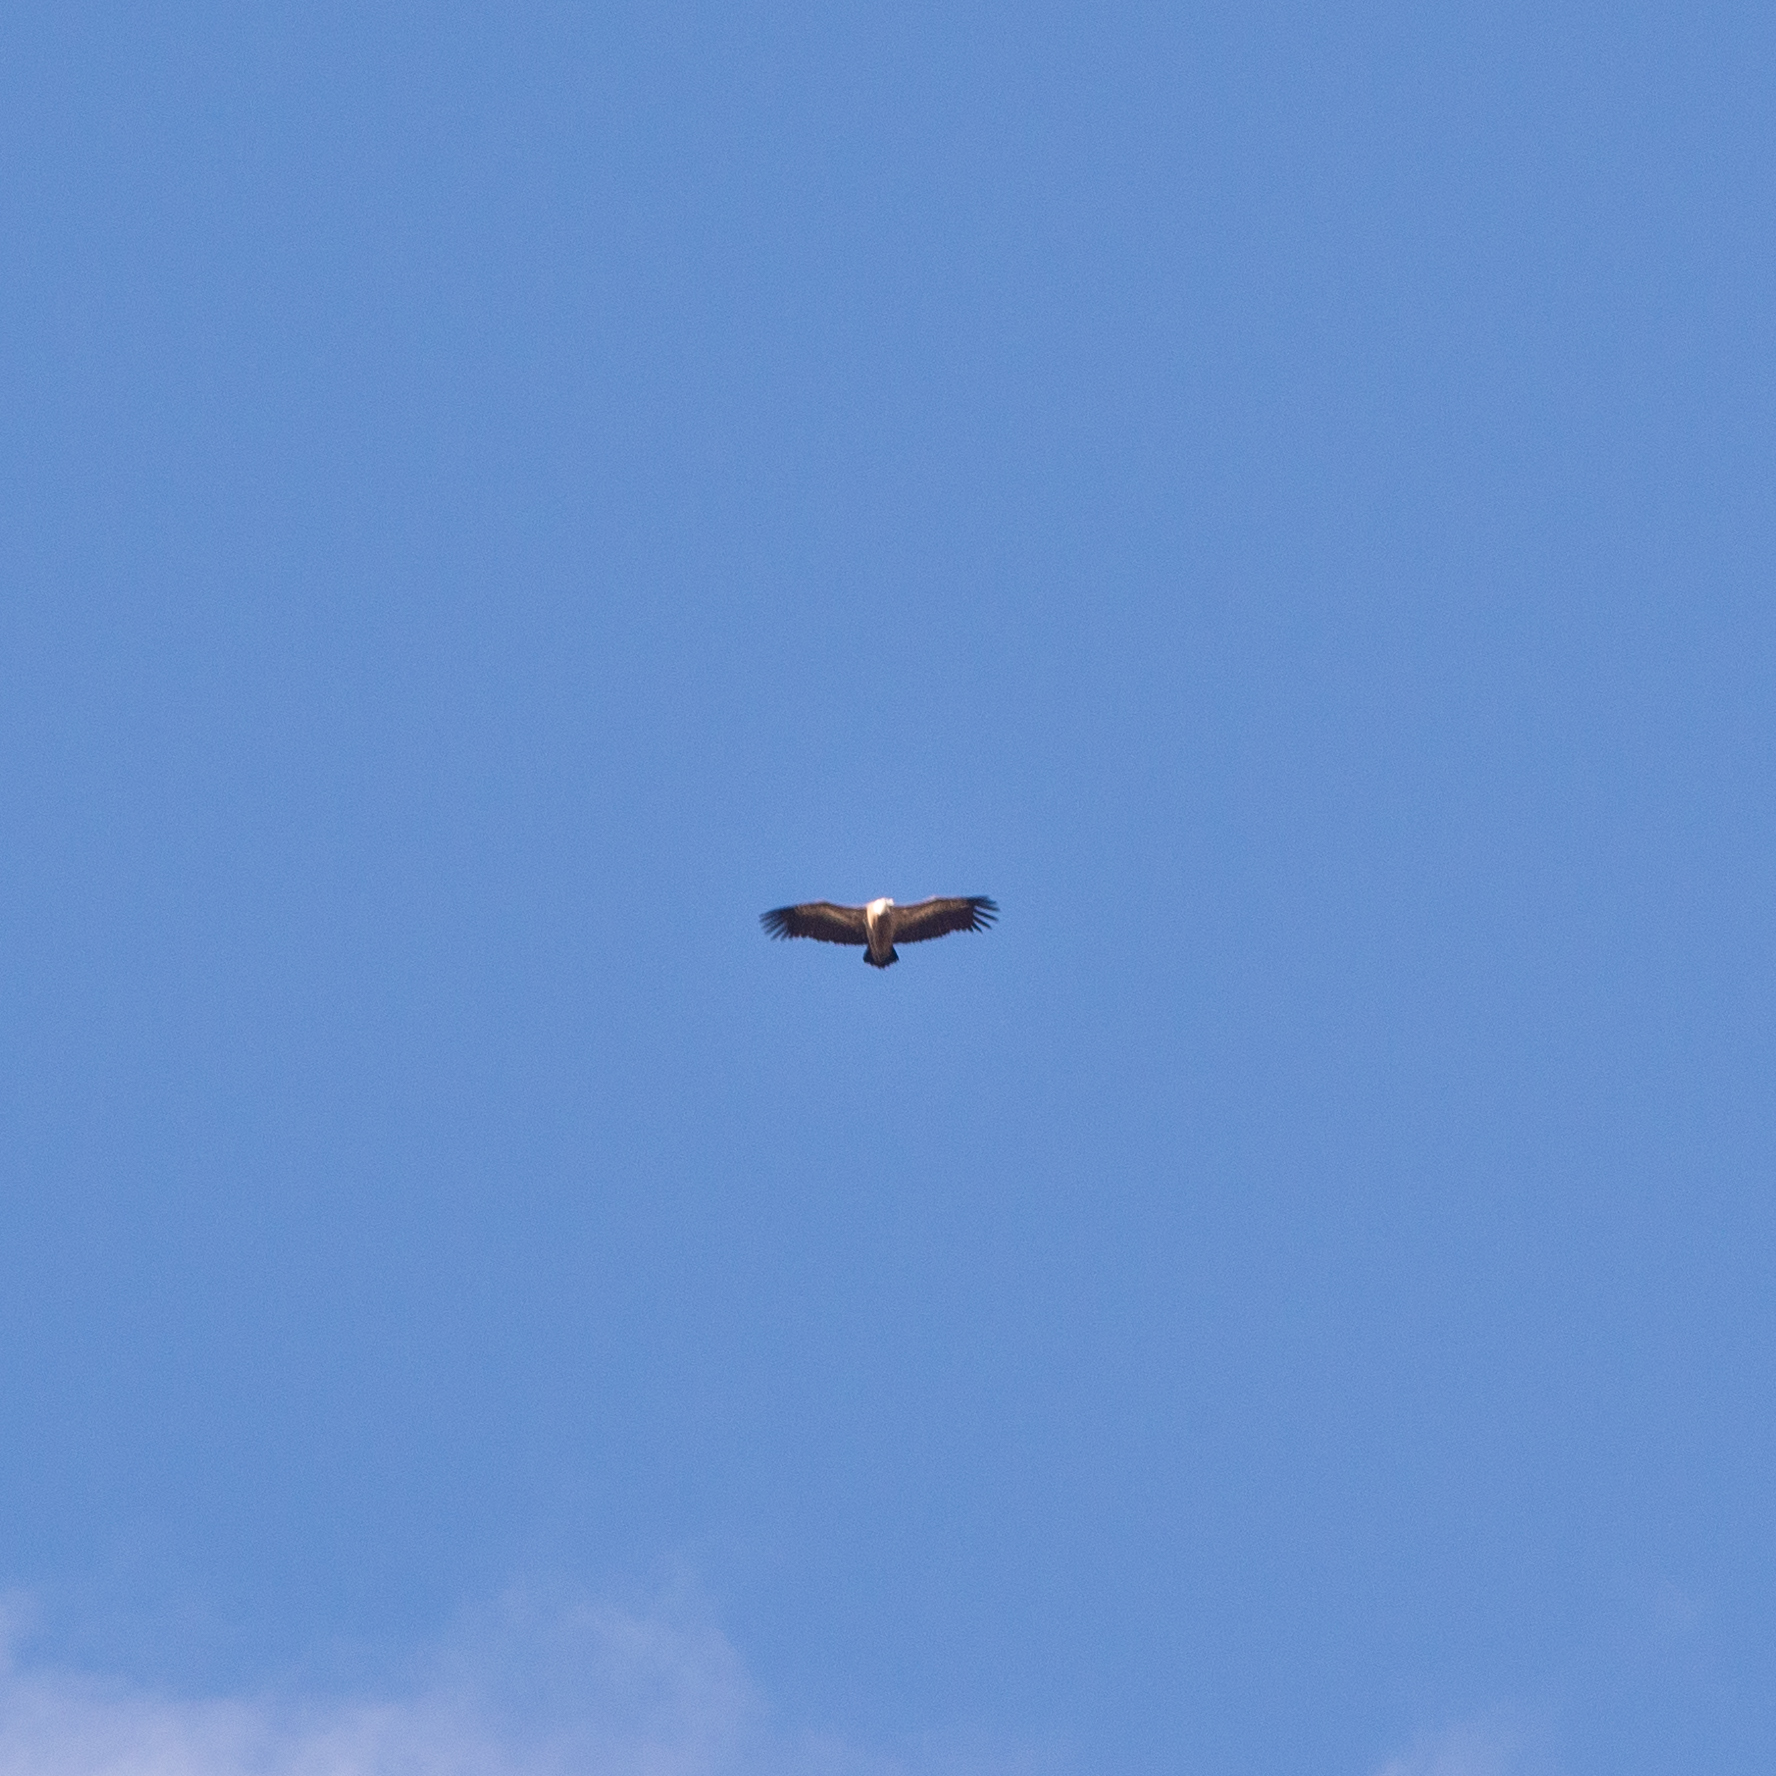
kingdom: Animalia
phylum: Chordata
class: Aves
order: Accipitriformes
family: Accipitridae
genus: Gyps
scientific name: Gyps fulvus
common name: Griffon vulture
